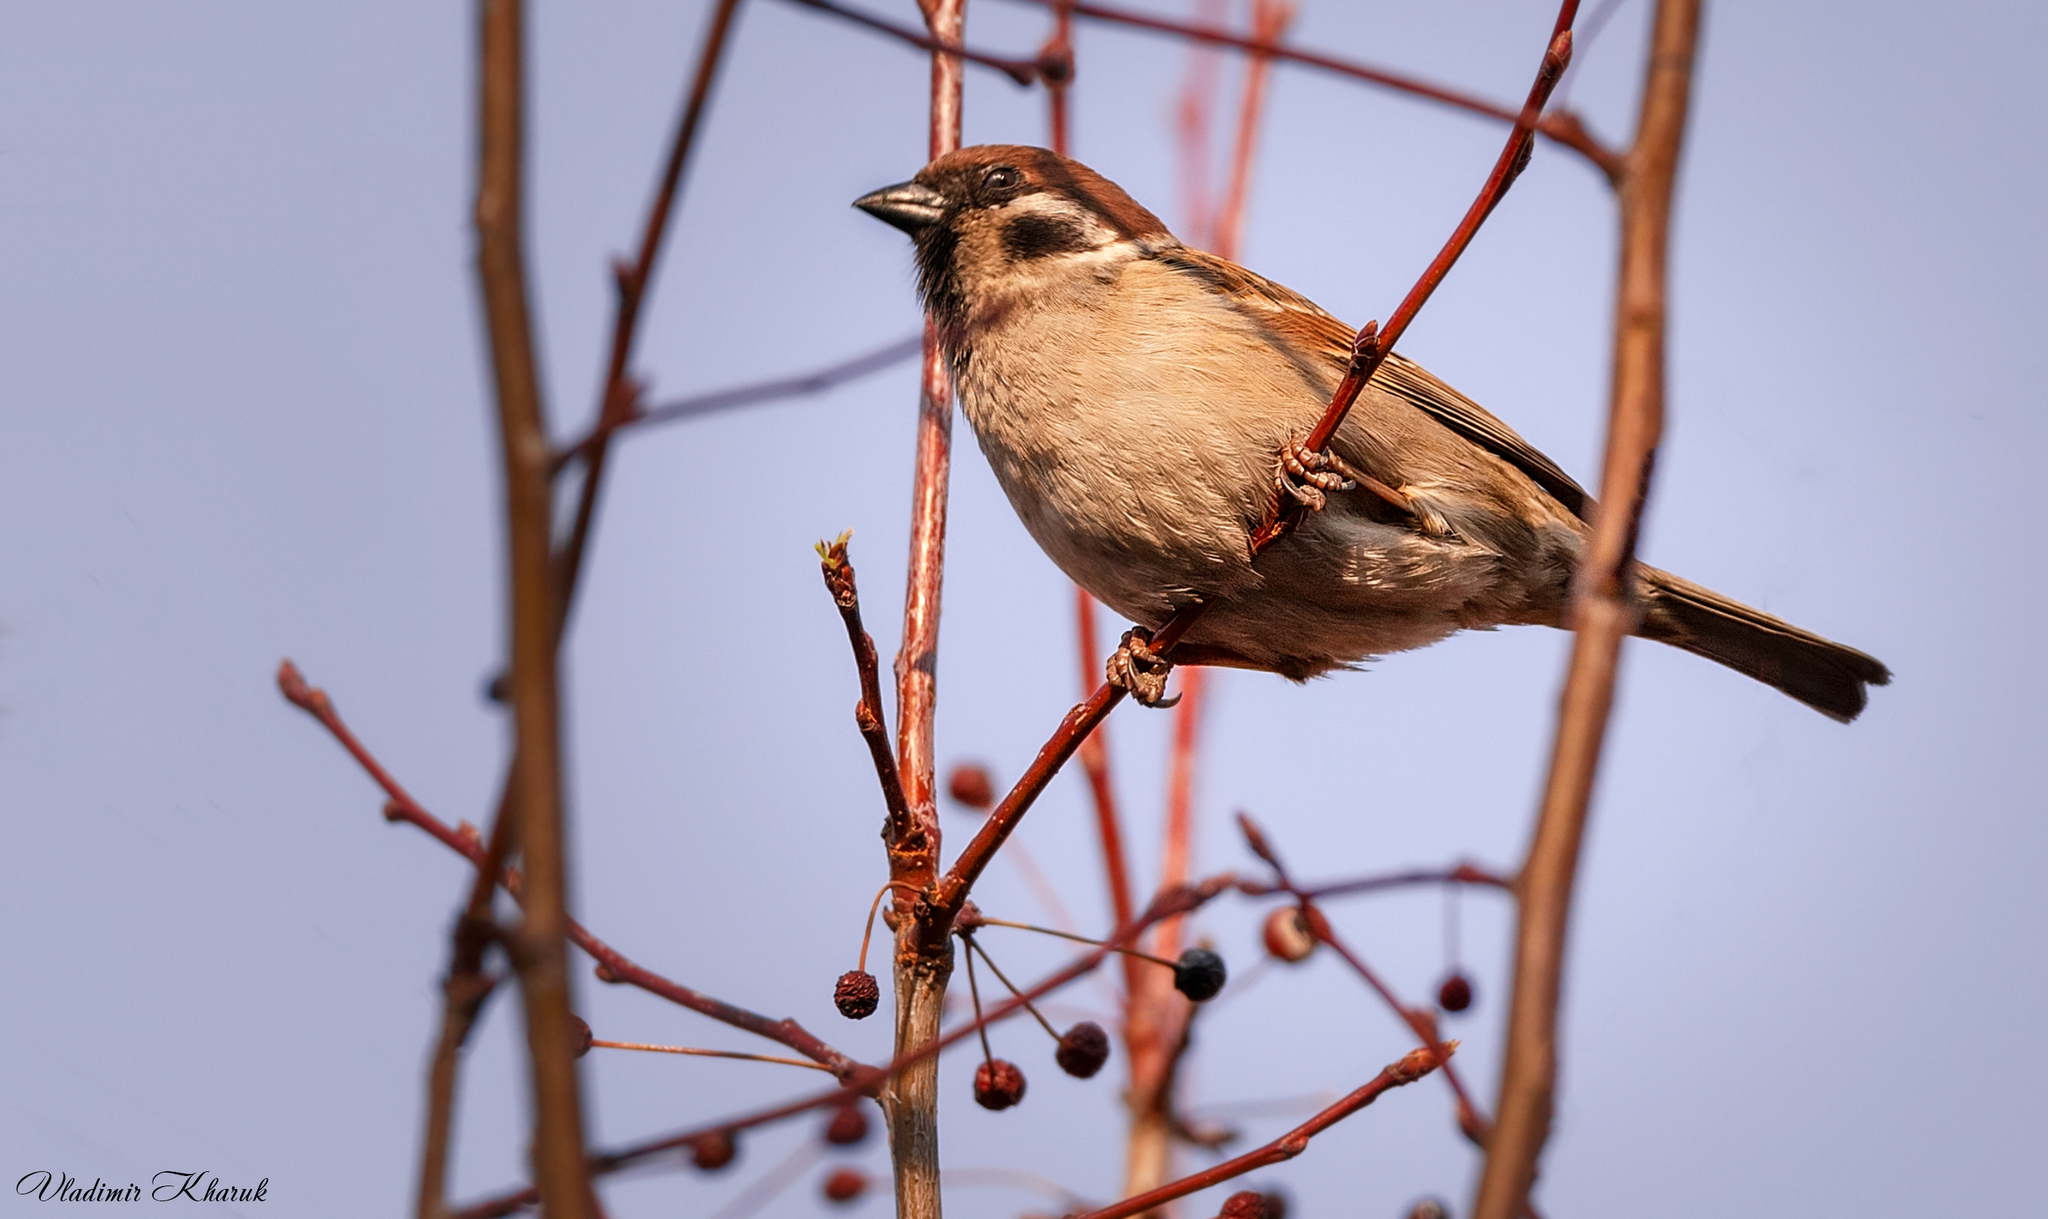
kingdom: Animalia
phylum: Chordata
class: Aves
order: Passeriformes
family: Passeridae
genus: Passer
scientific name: Passer montanus
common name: Eurasian tree sparrow
